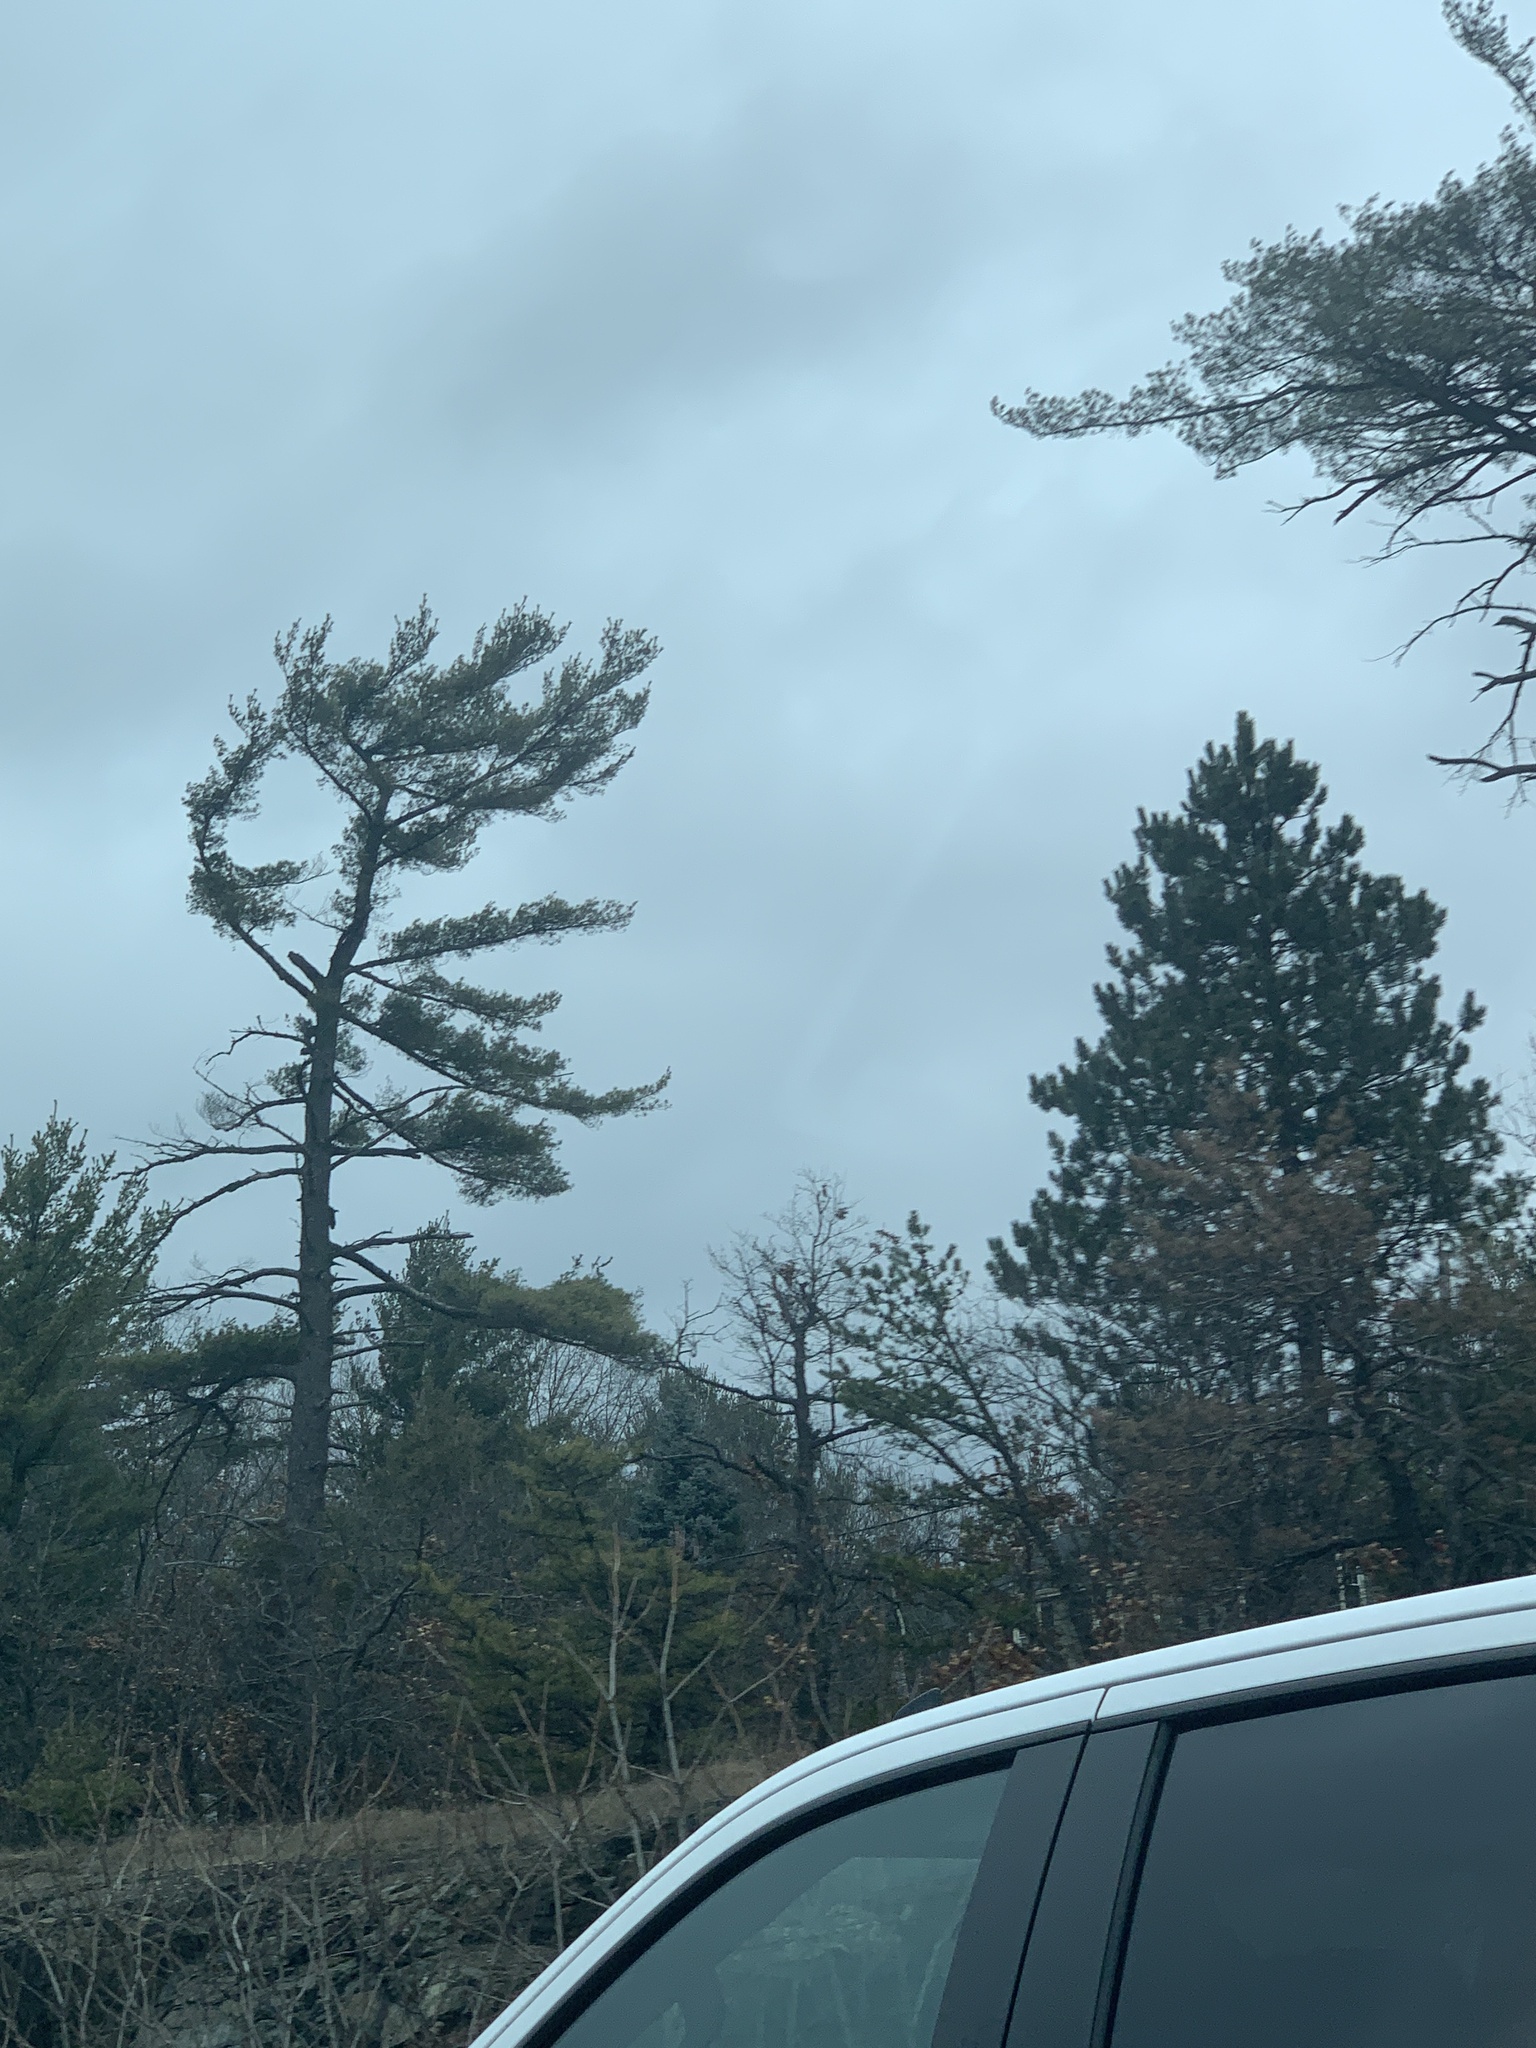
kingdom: Plantae
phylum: Tracheophyta
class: Pinopsida
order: Pinales
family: Pinaceae
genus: Pinus
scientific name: Pinus strobus
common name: Weymouth pine
